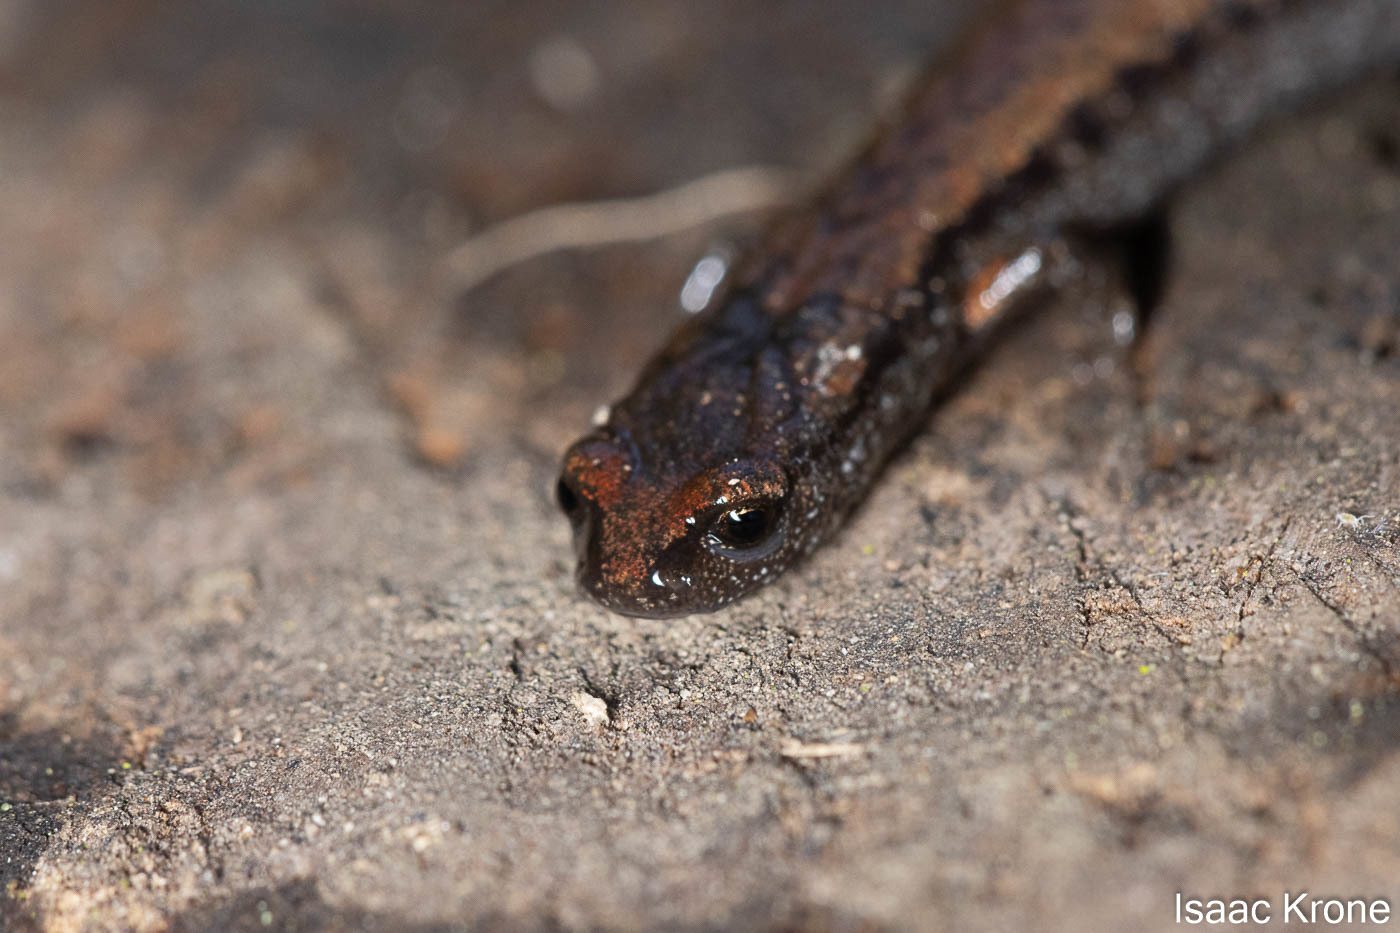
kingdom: Animalia
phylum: Chordata
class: Amphibia
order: Caudata
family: Plethodontidae
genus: Batrachoseps
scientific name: Batrachoseps attenuatus
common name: California slender salamander
